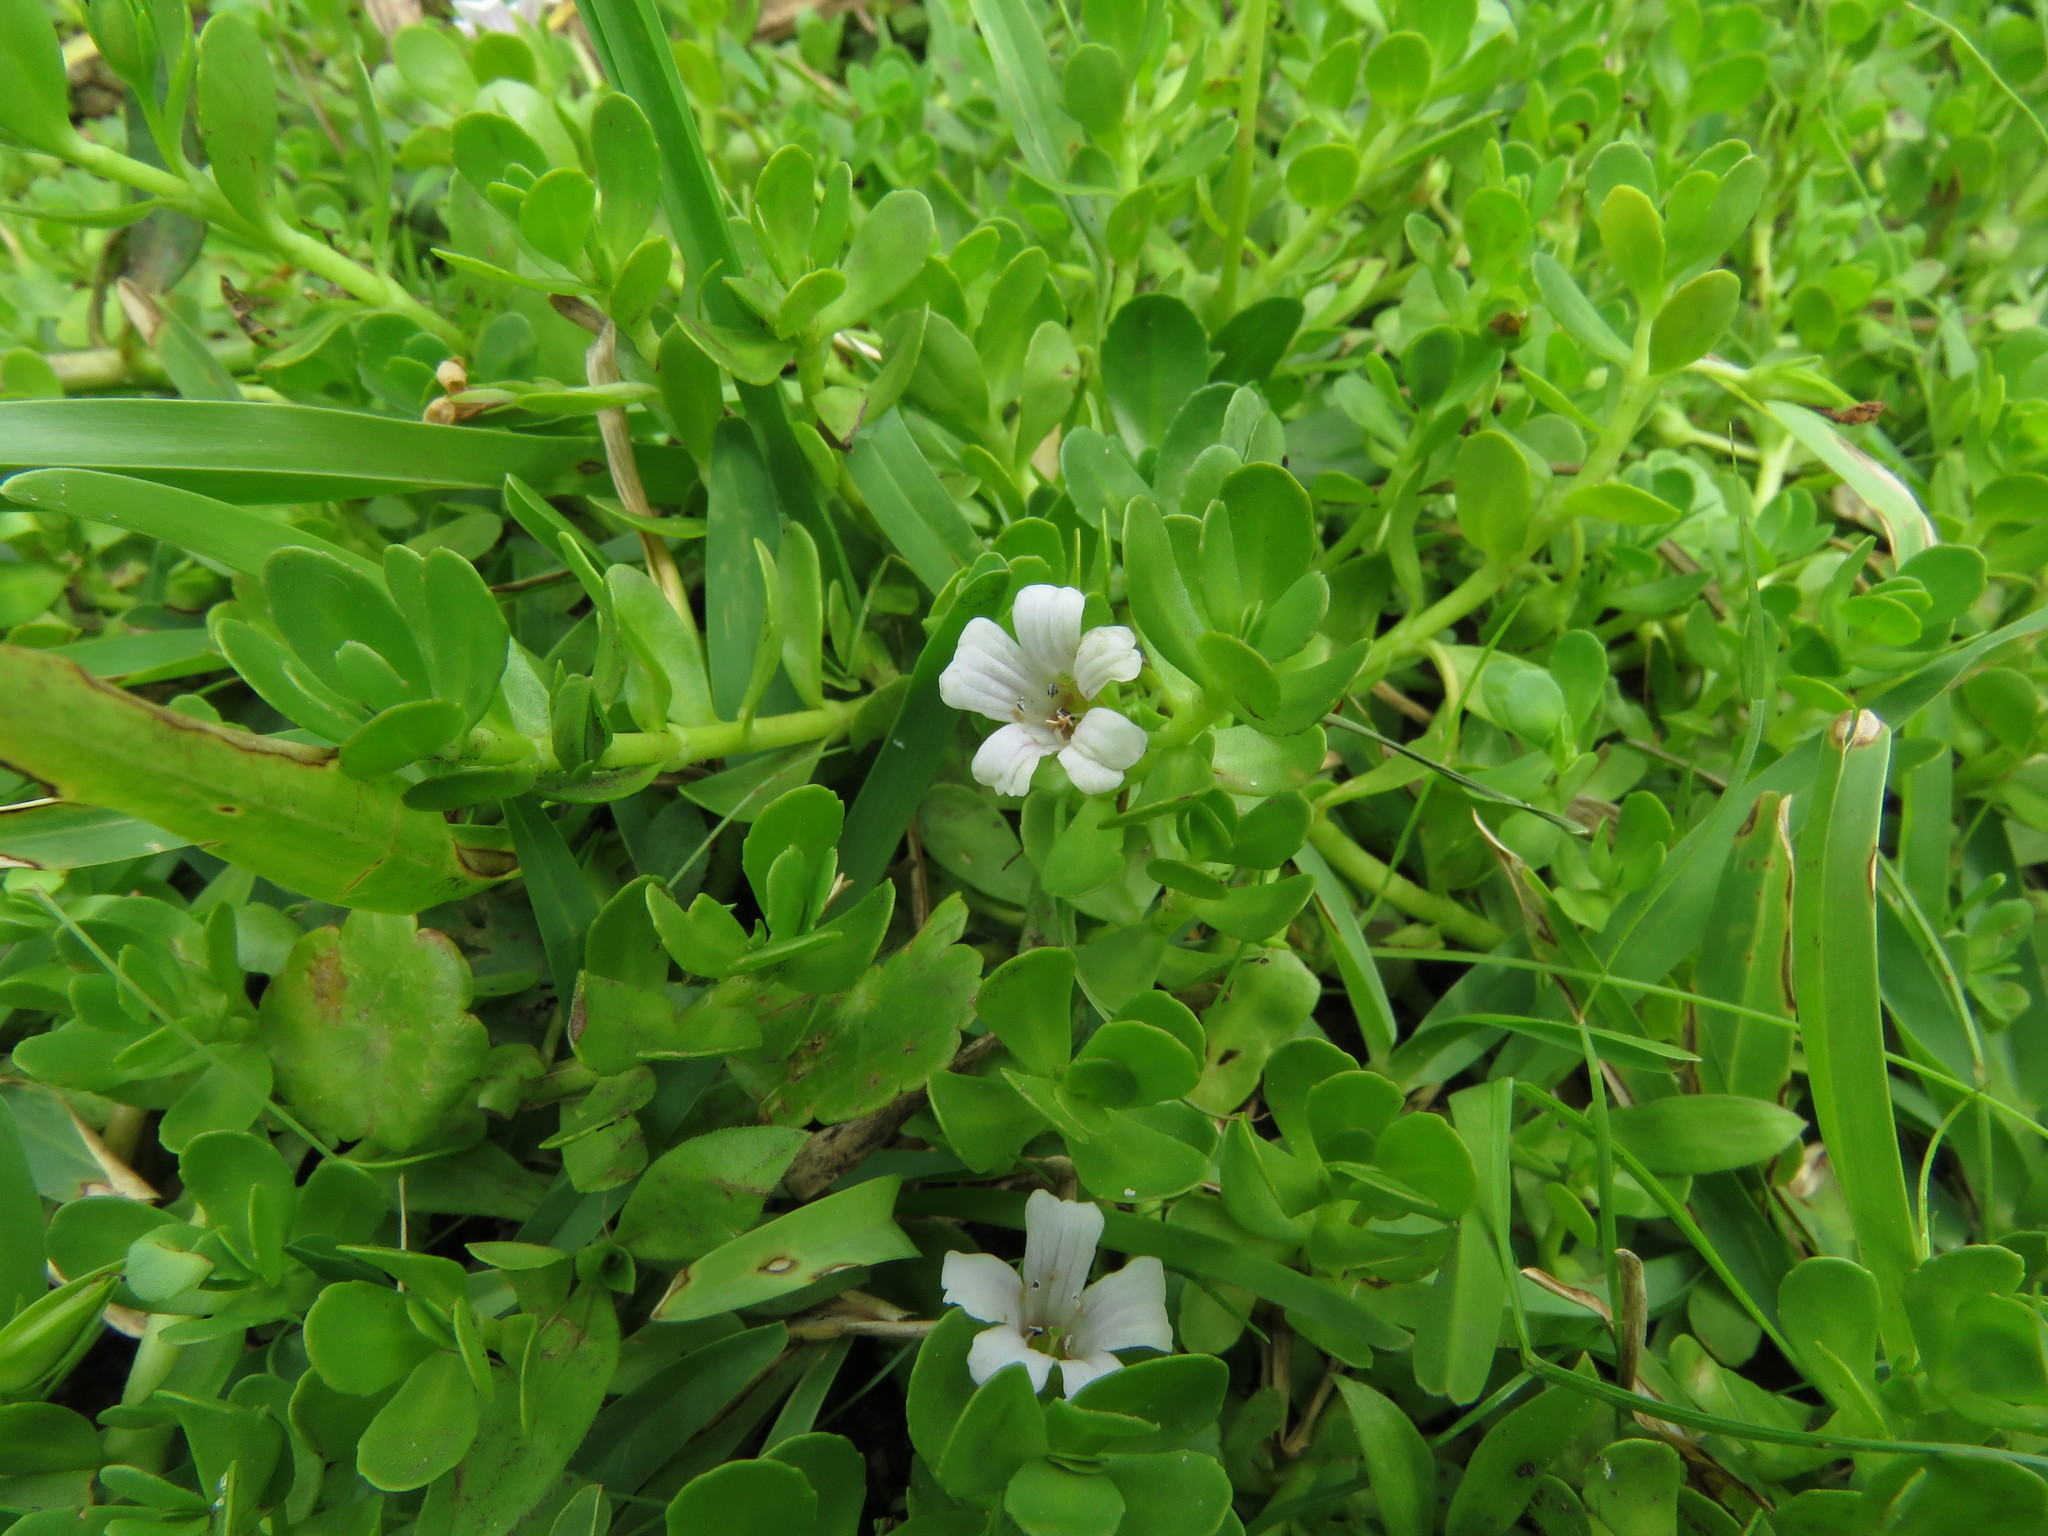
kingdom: Plantae
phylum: Tracheophyta
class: Magnoliopsida
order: Lamiales
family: Plantaginaceae
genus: Bacopa
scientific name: Bacopa monnieri
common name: Indian-pennywort
